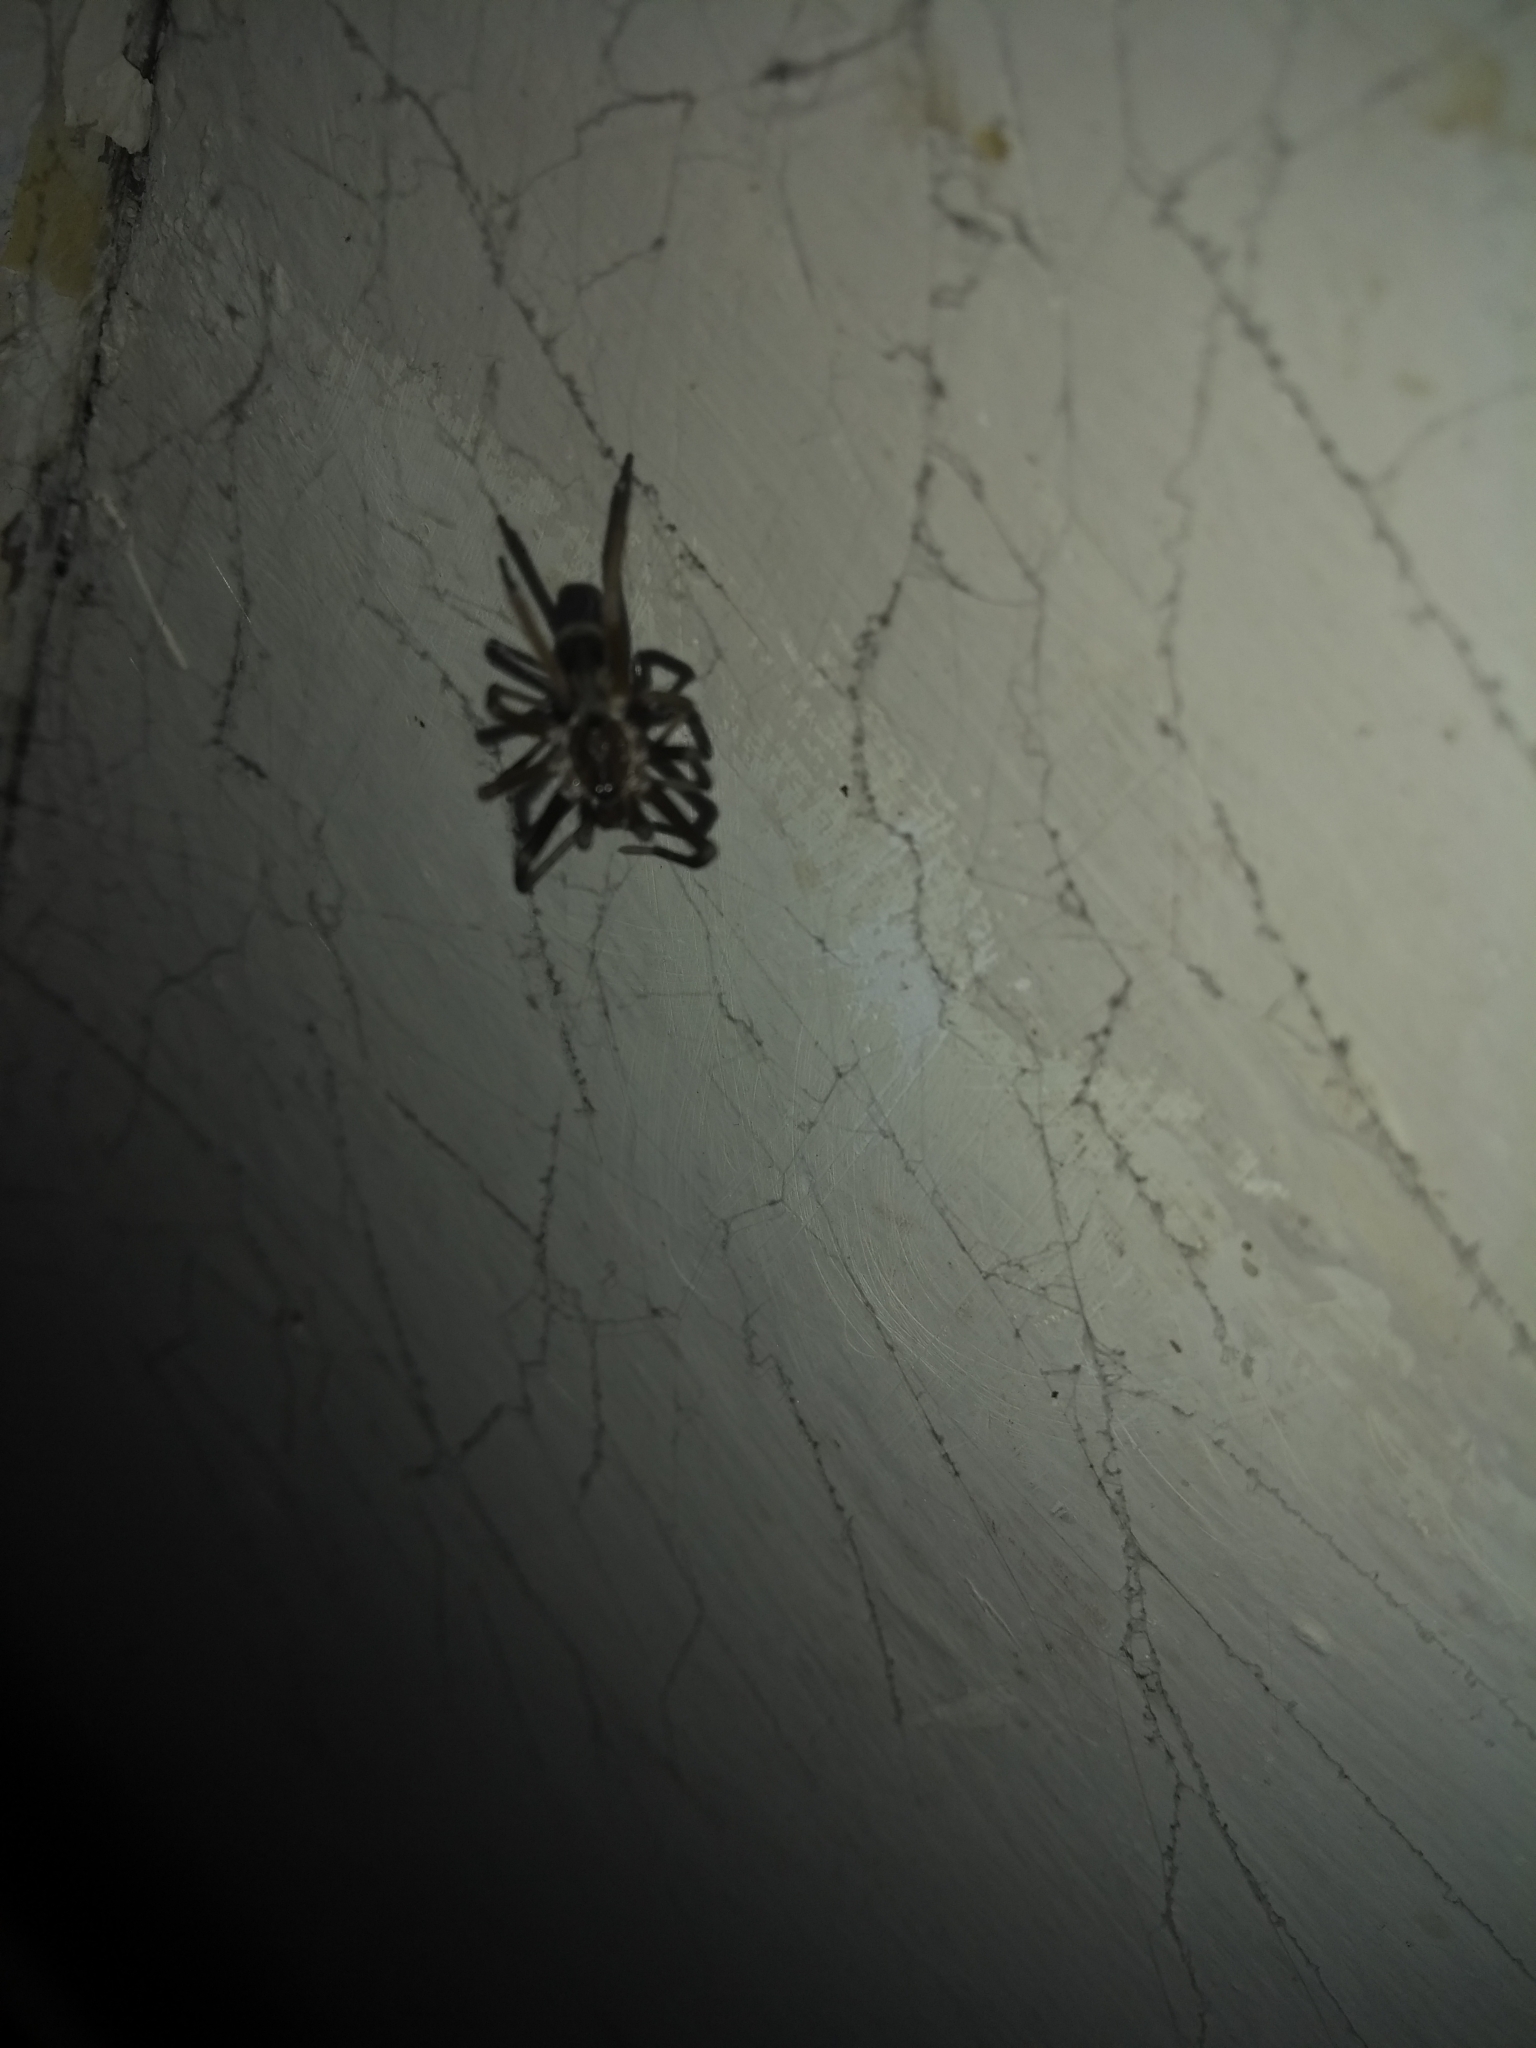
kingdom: Animalia
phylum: Arthropoda
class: Arachnida
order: Araneae
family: Filistatidae
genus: Kukulcania
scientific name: Kukulcania hibernalis
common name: Crevice weaver
